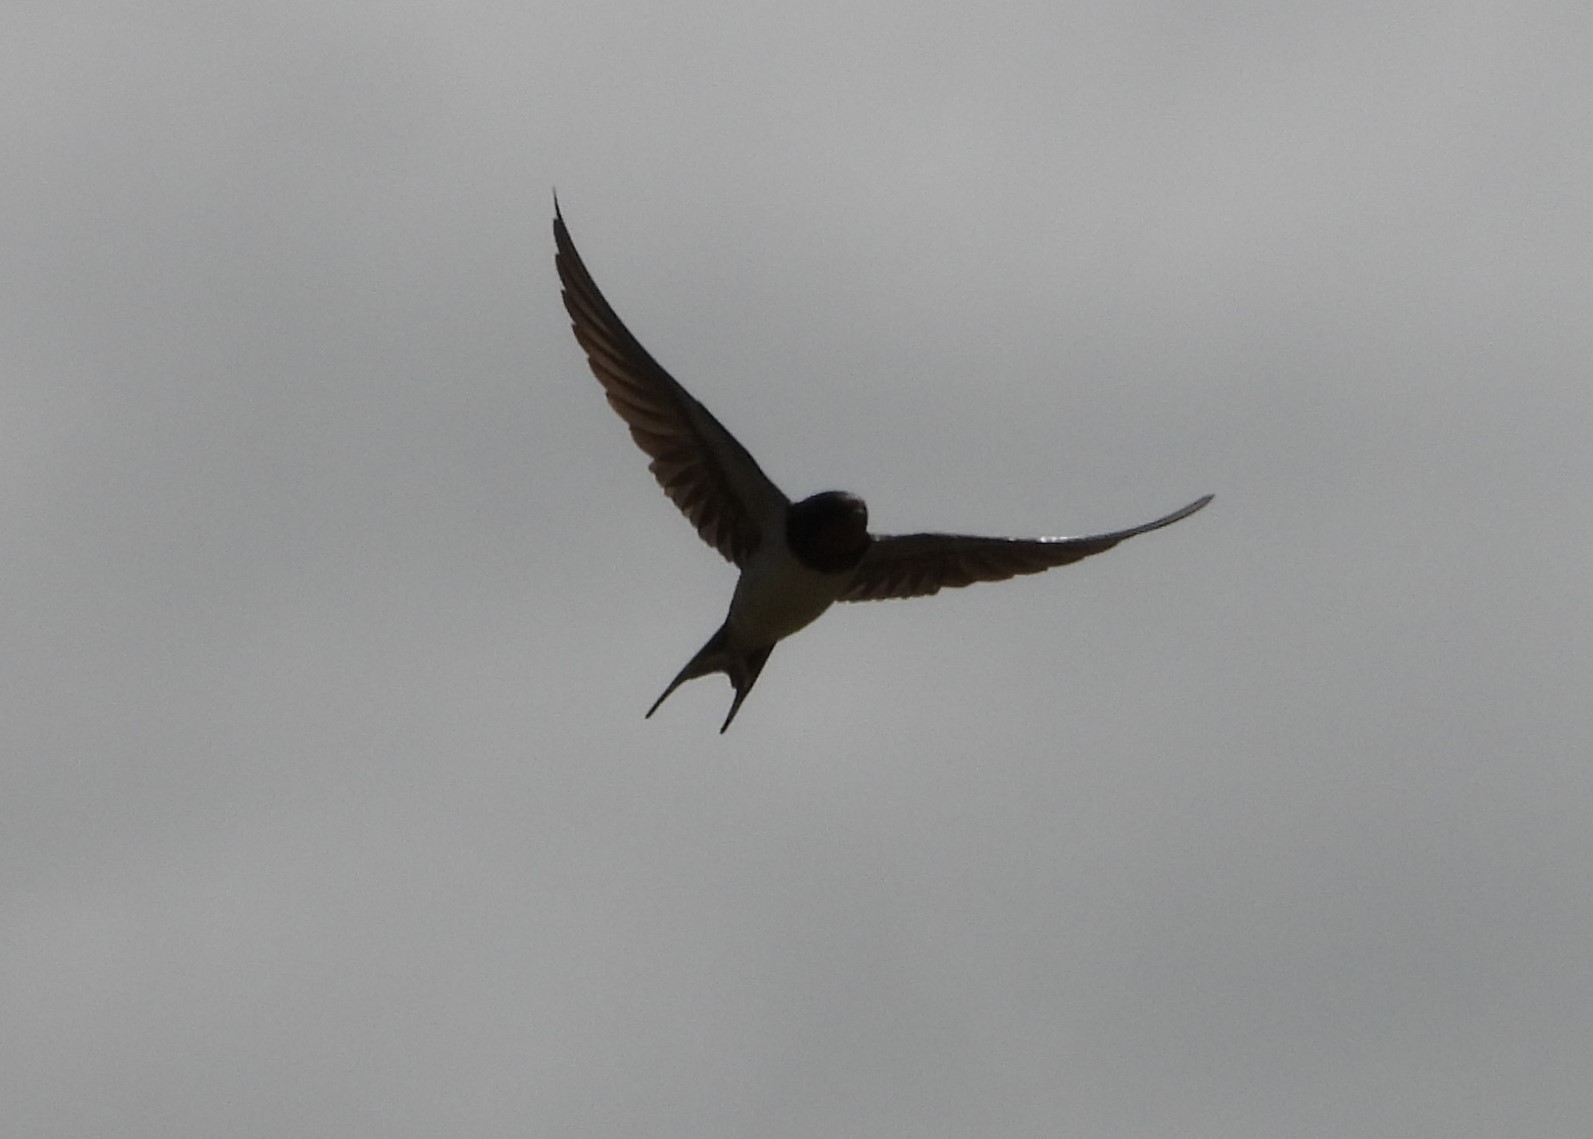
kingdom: Animalia
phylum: Chordata
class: Aves
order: Passeriformes
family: Hirundinidae
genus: Hirundo
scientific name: Hirundo rustica
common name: Barn swallow
